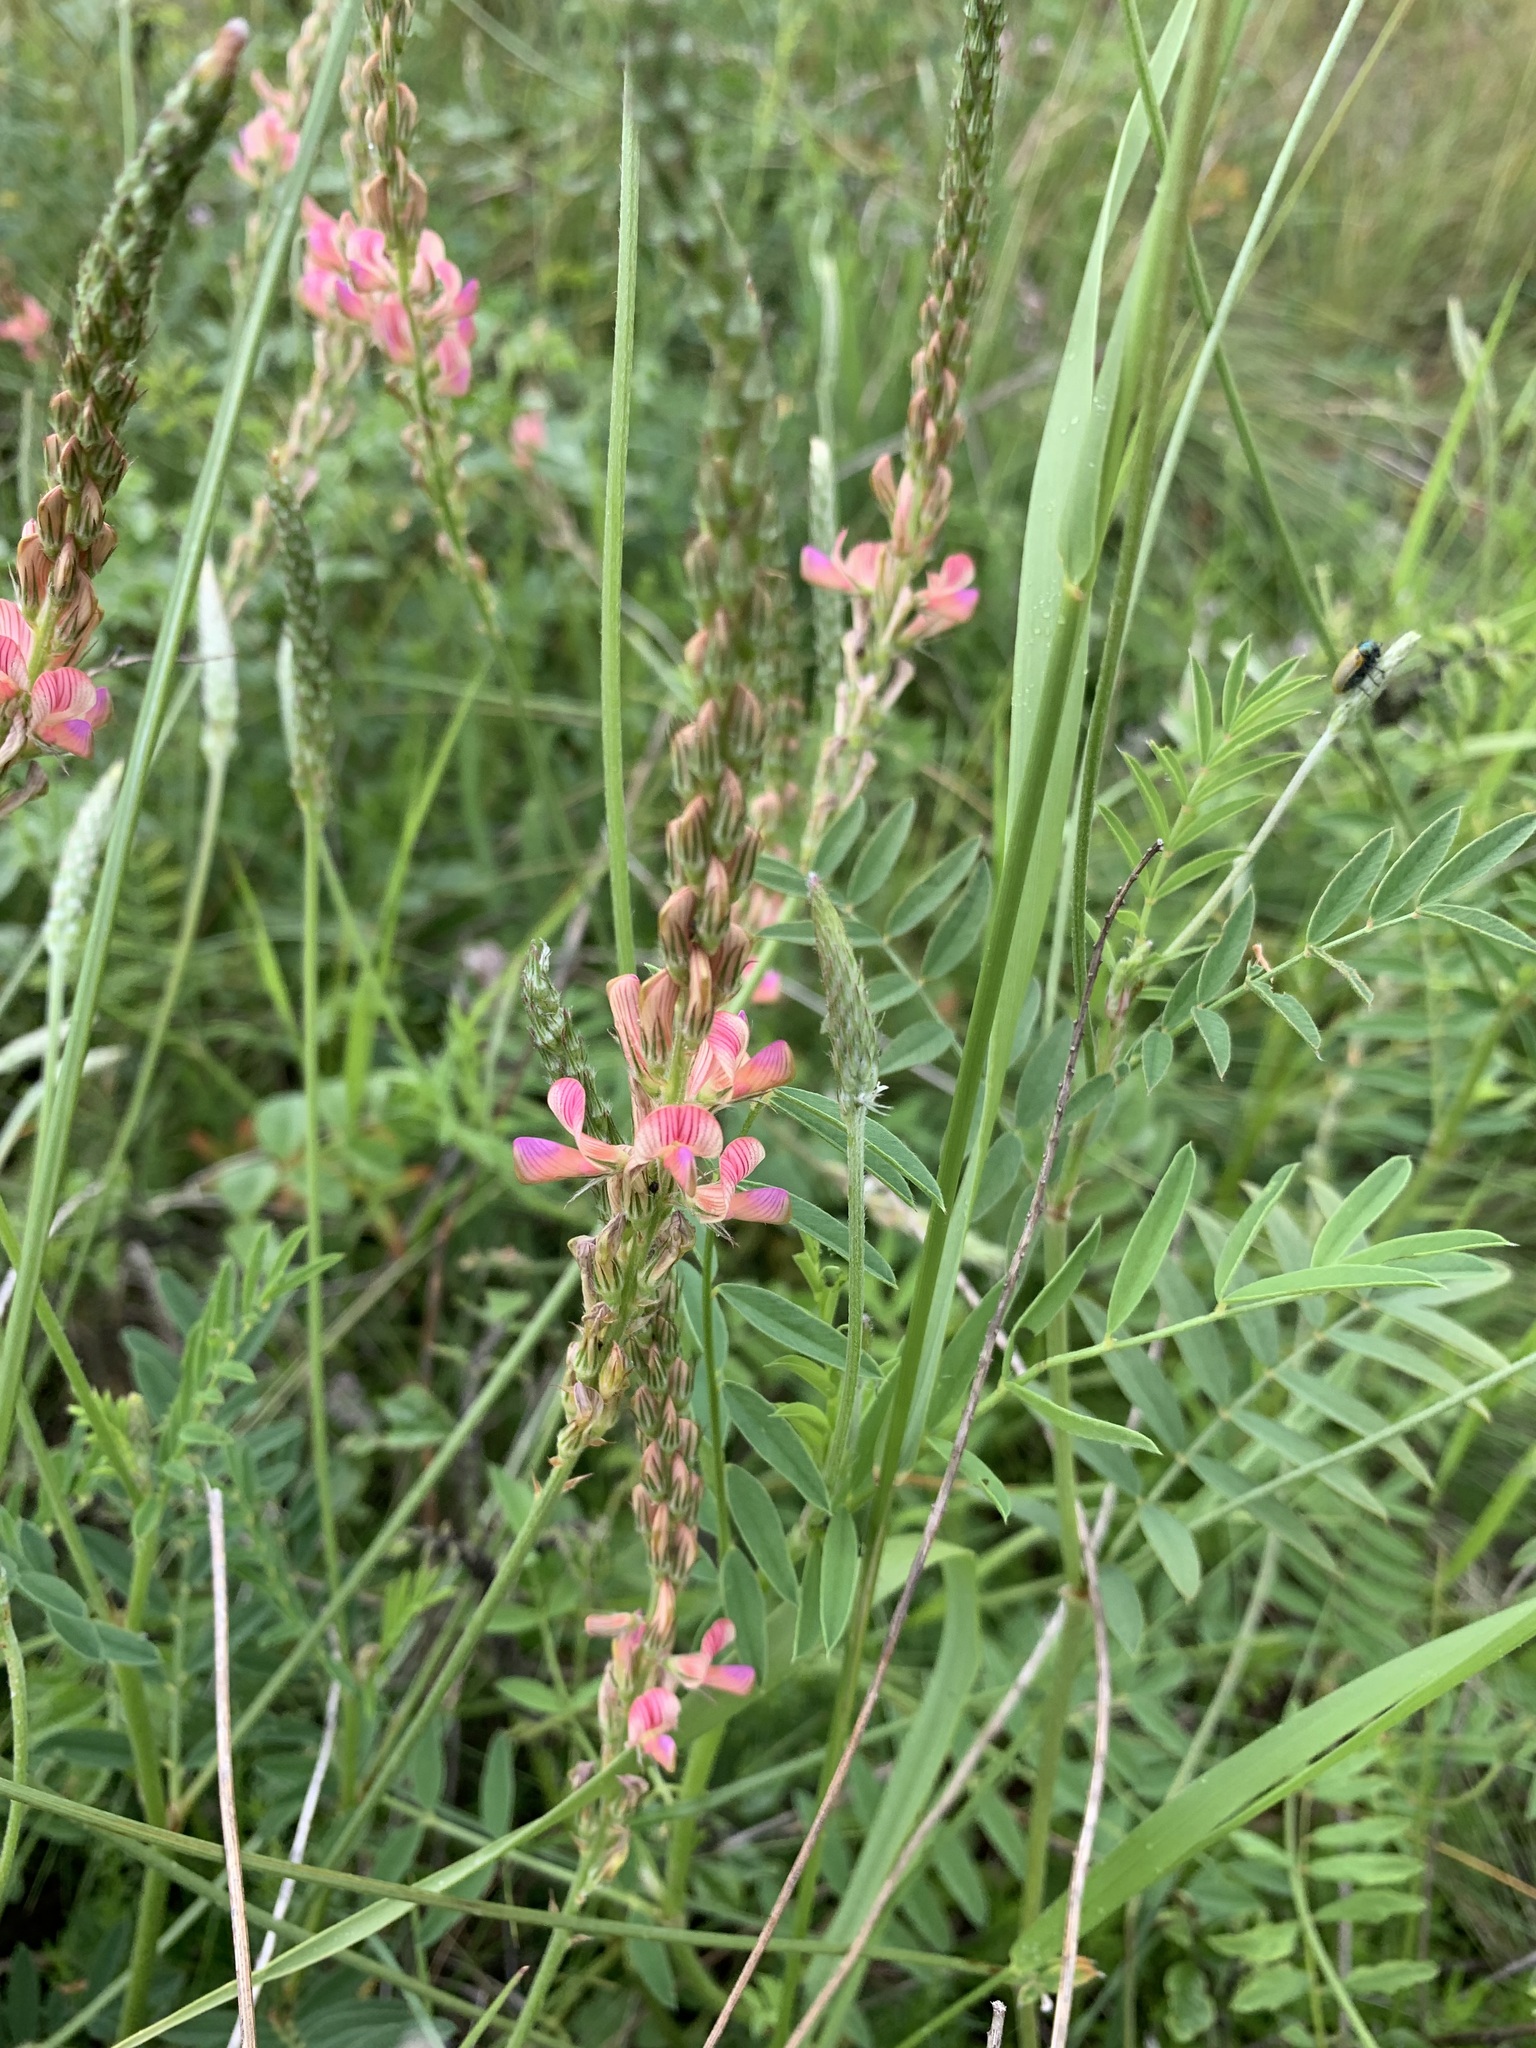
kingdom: Plantae
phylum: Tracheophyta
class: Magnoliopsida
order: Fabales
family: Fabaceae
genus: Onobrychis
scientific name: Onobrychis arenaria
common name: Sand esparcet
